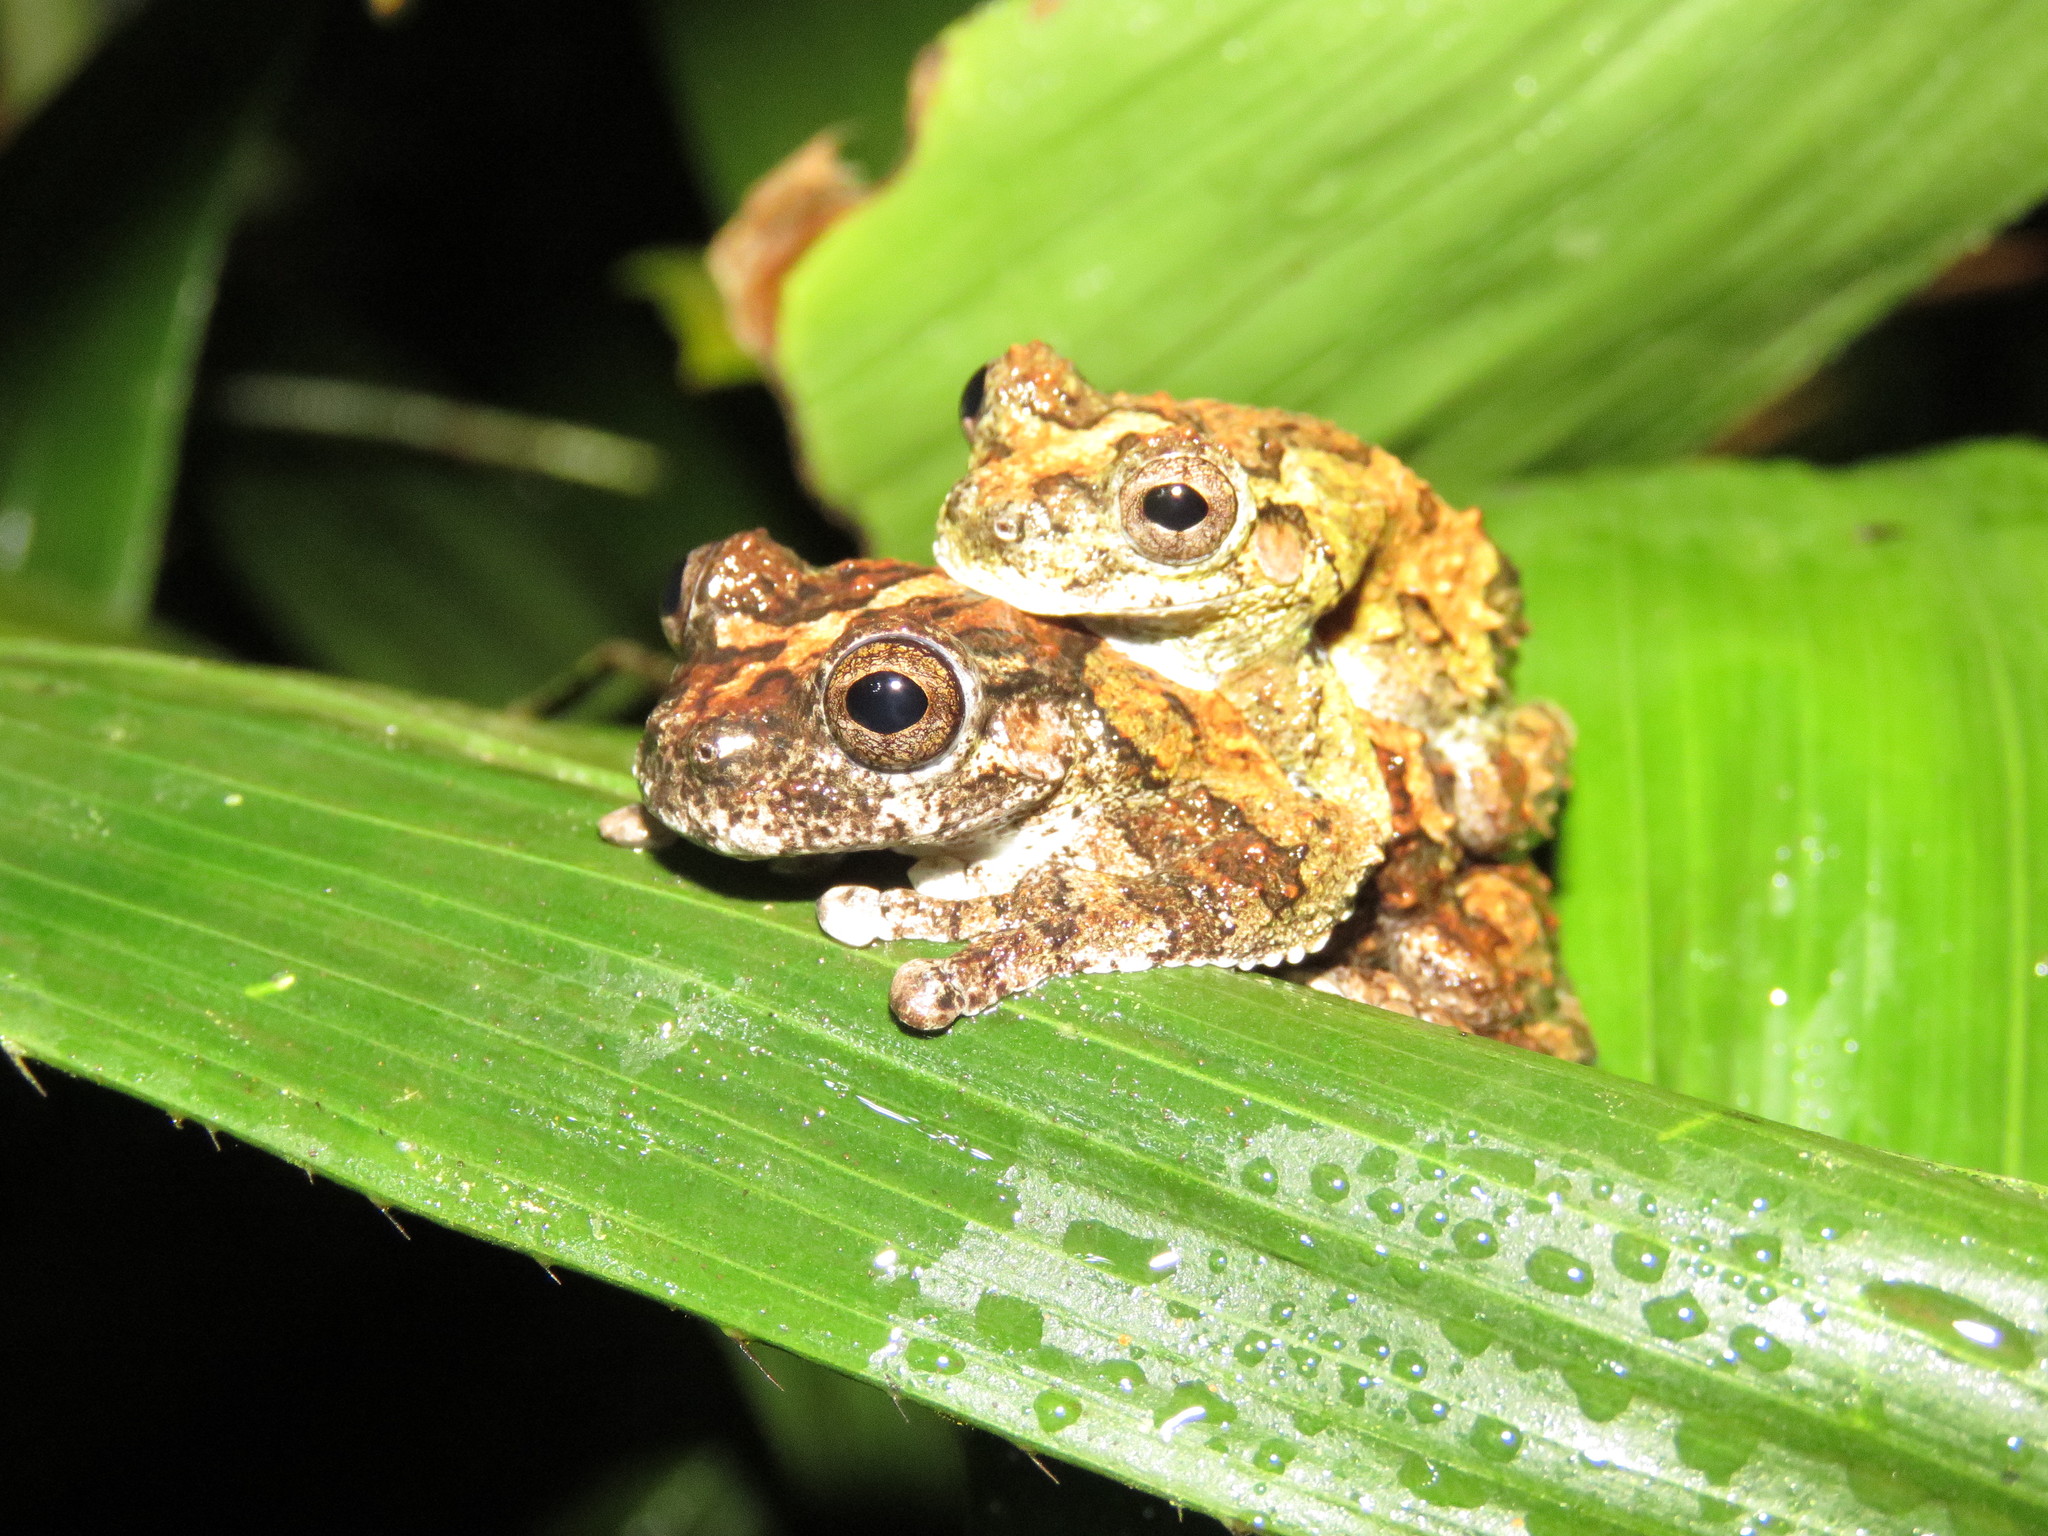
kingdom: Animalia
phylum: Chordata
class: Amphibia
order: Anura
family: Hylidae
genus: Dendropsophus
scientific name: Dendropsophus acreanus
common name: Acre treefrog
